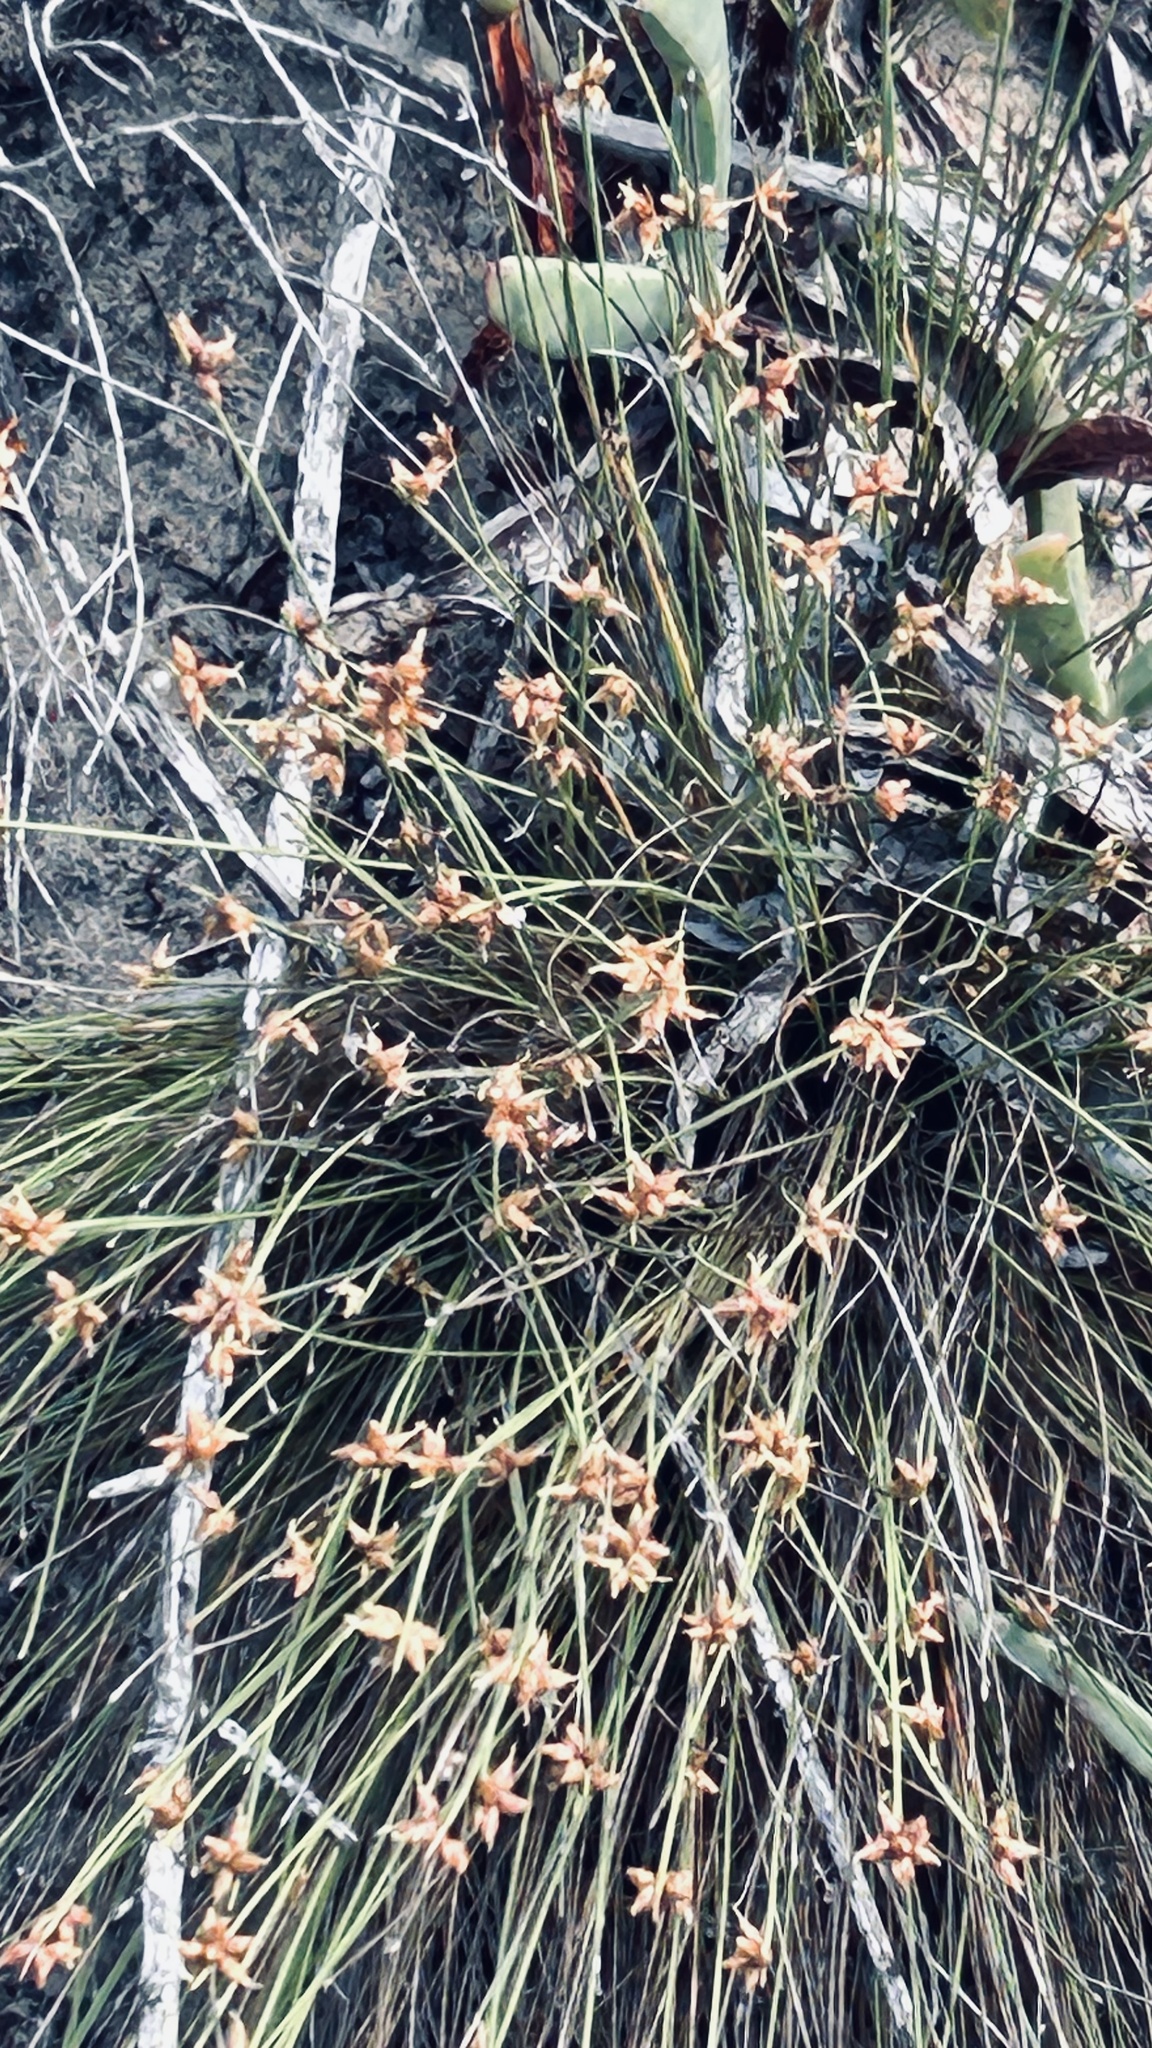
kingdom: Plantae
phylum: Tracheophyta
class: Liliopsida
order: Poales
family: Cyperaceae
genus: Ficinia
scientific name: Ficinia lateralis
